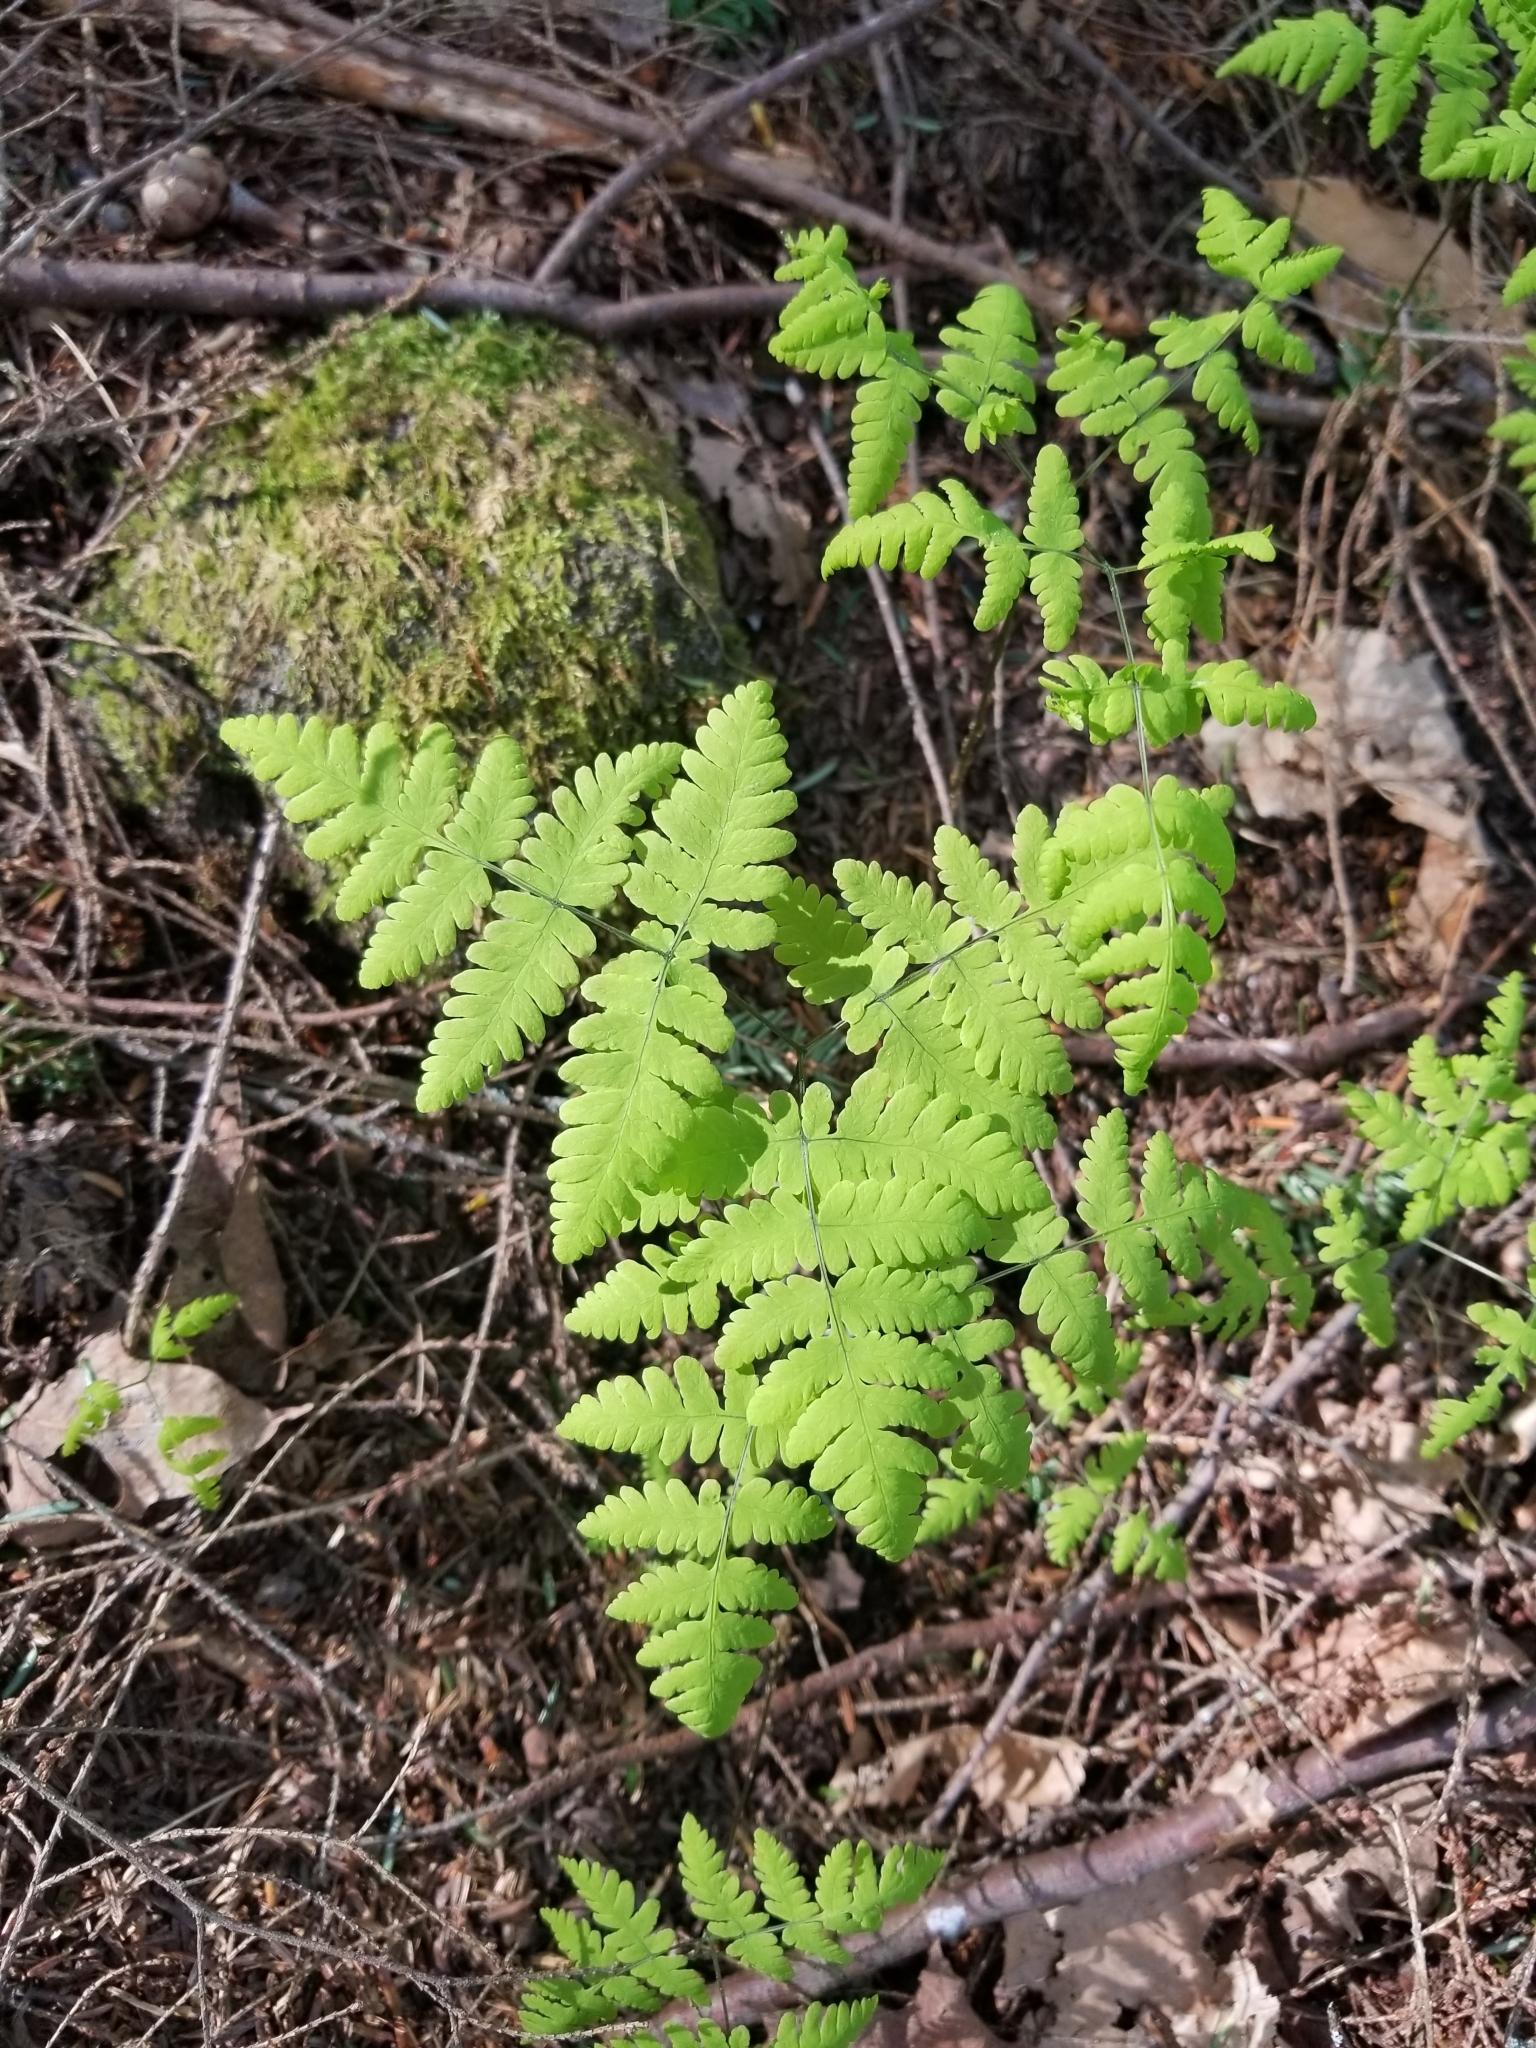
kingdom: Plantae
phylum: Tracheophyta
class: Polypodiopsida
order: Polypodiales
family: Cystopteridaceae
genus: Gymnocarpium
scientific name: Gymnocarpium dryopteris
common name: Oak fern
